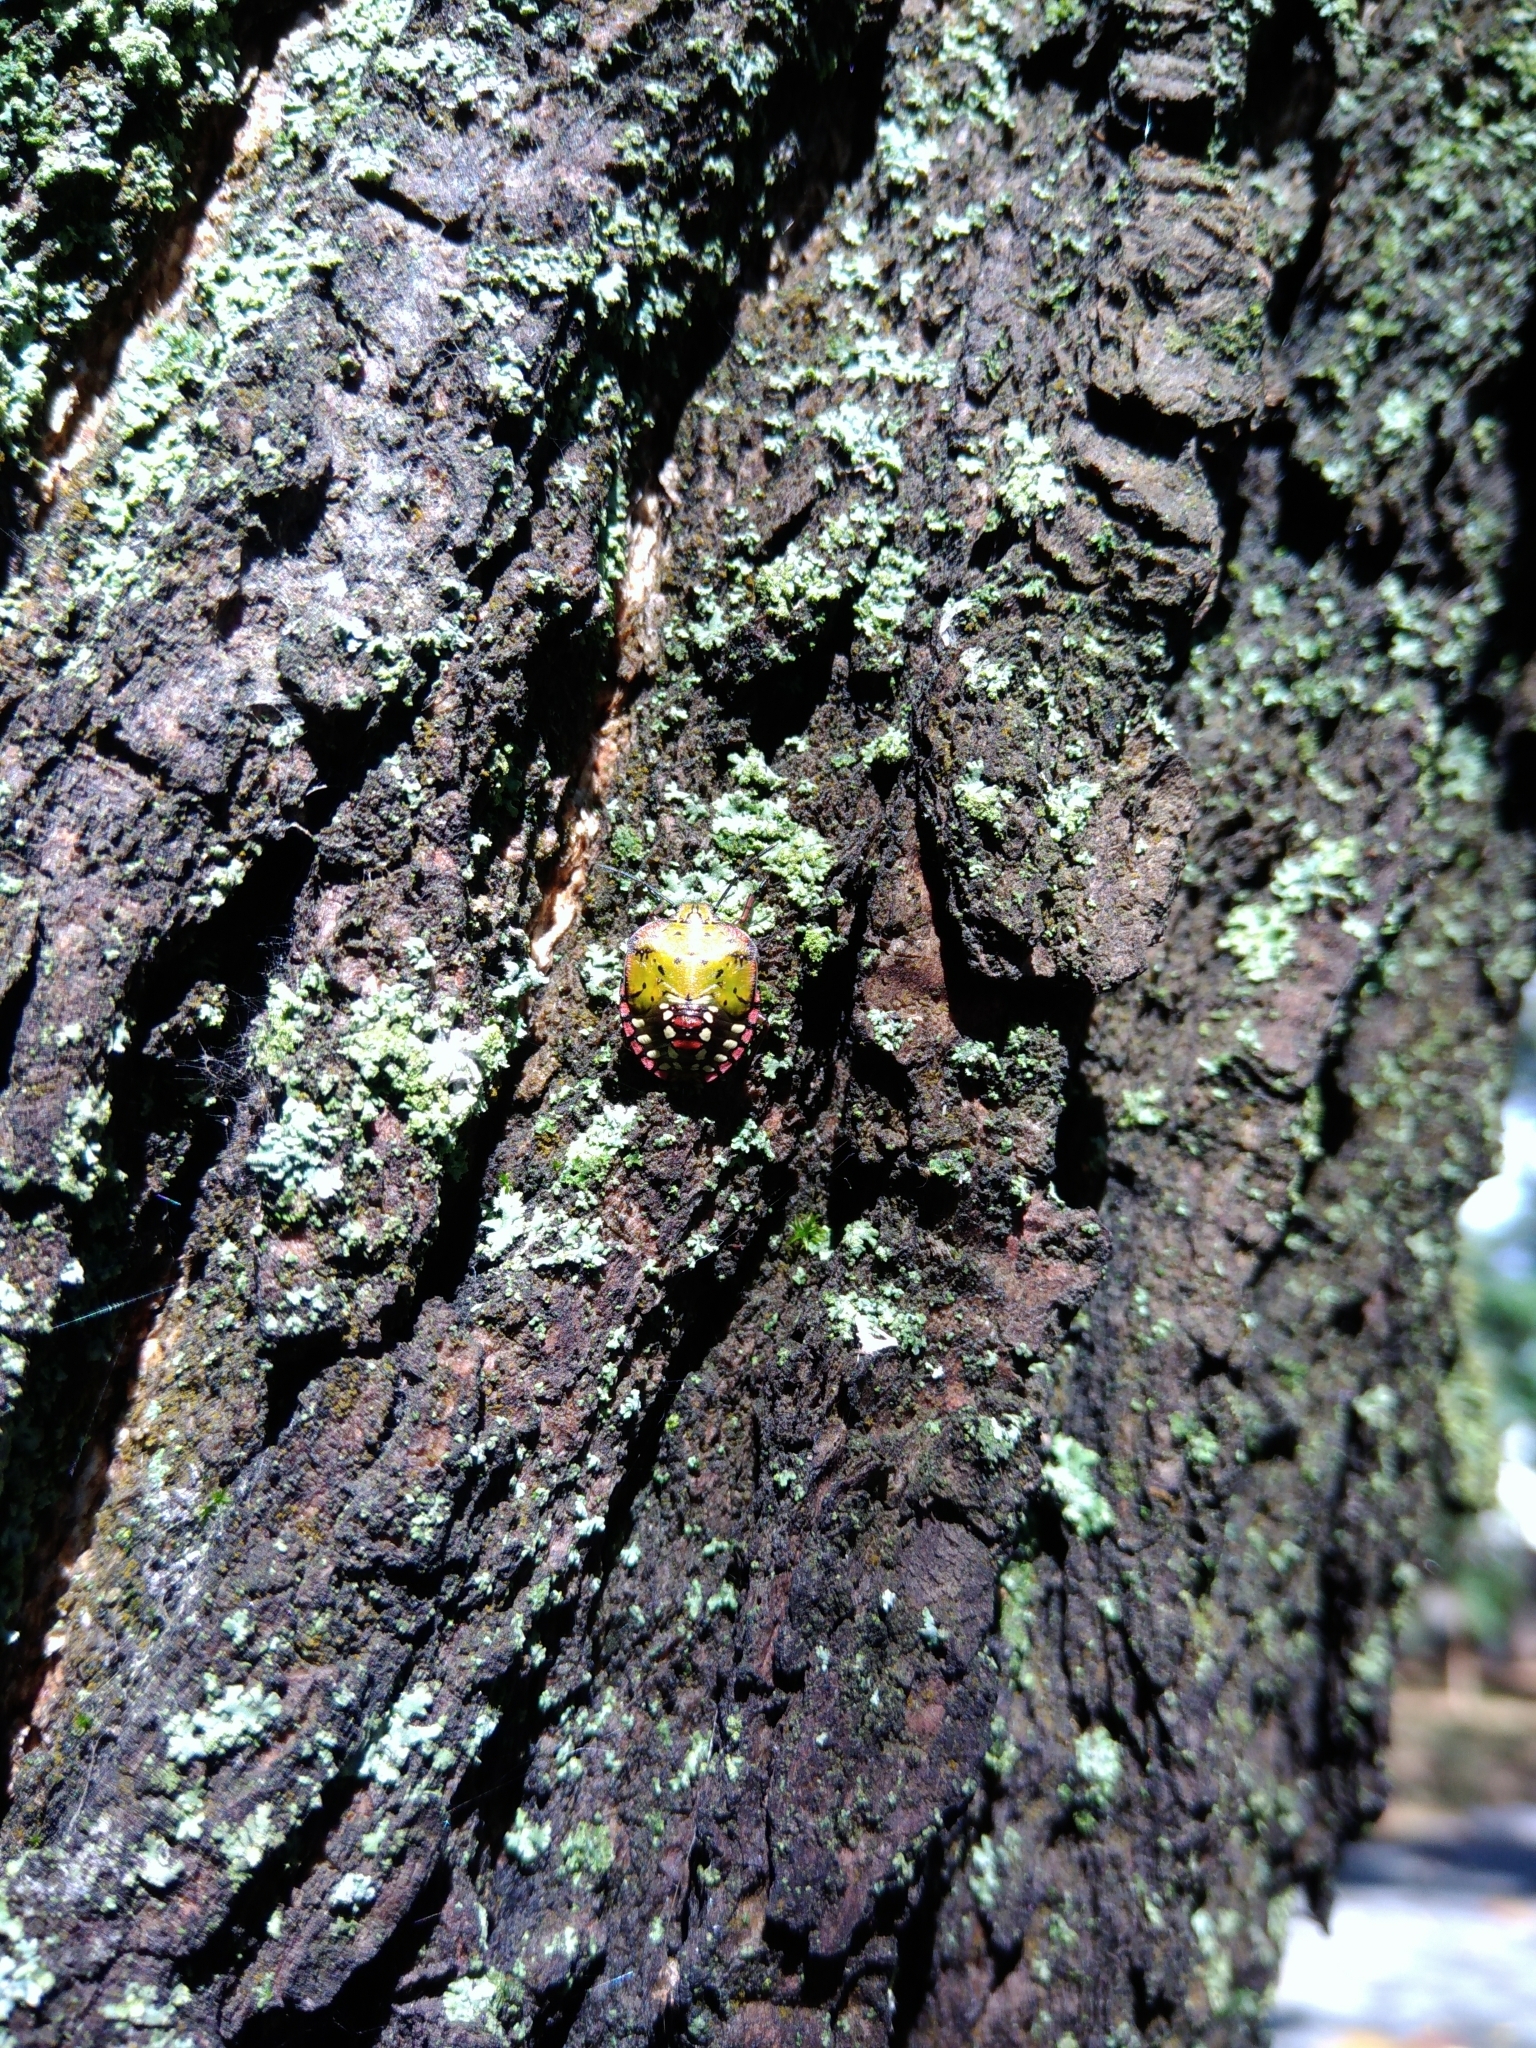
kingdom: Animalia
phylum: Arthropoda
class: Insecta
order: Hemiptera
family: Pentatomidae
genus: Nezara
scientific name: Nezara viridula
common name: Southern green stink bug
